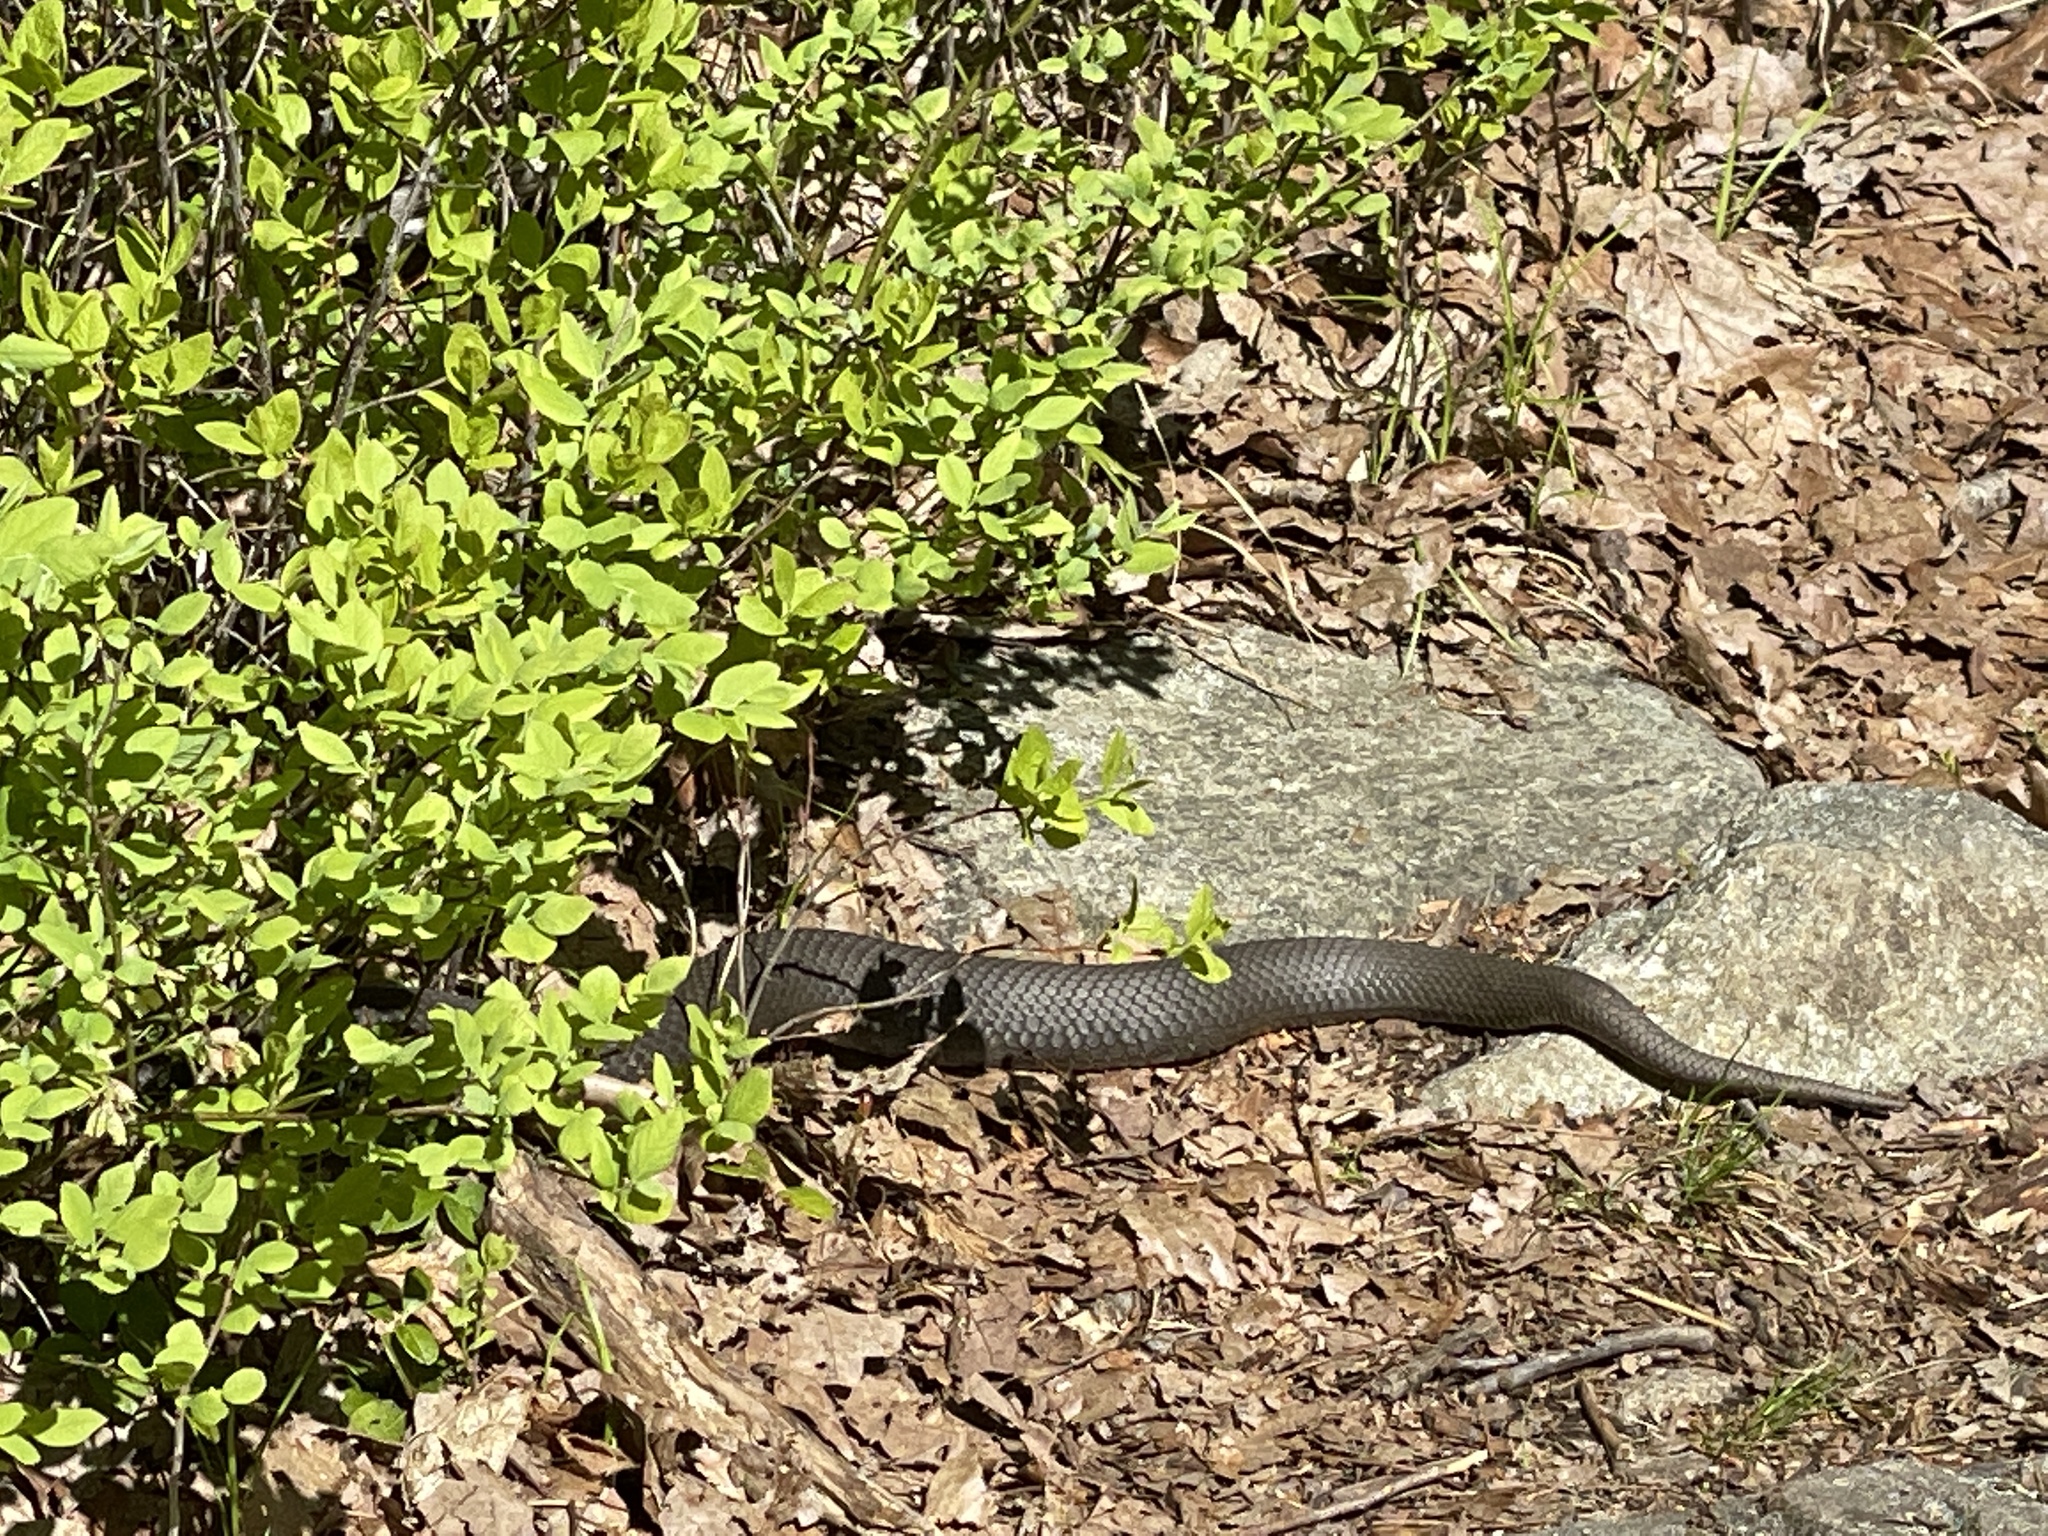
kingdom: Animalia
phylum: Chordata
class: Squamata
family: Colubridae
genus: Heterodon
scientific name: Heterodon platirhinos
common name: Eastern hognose snake
